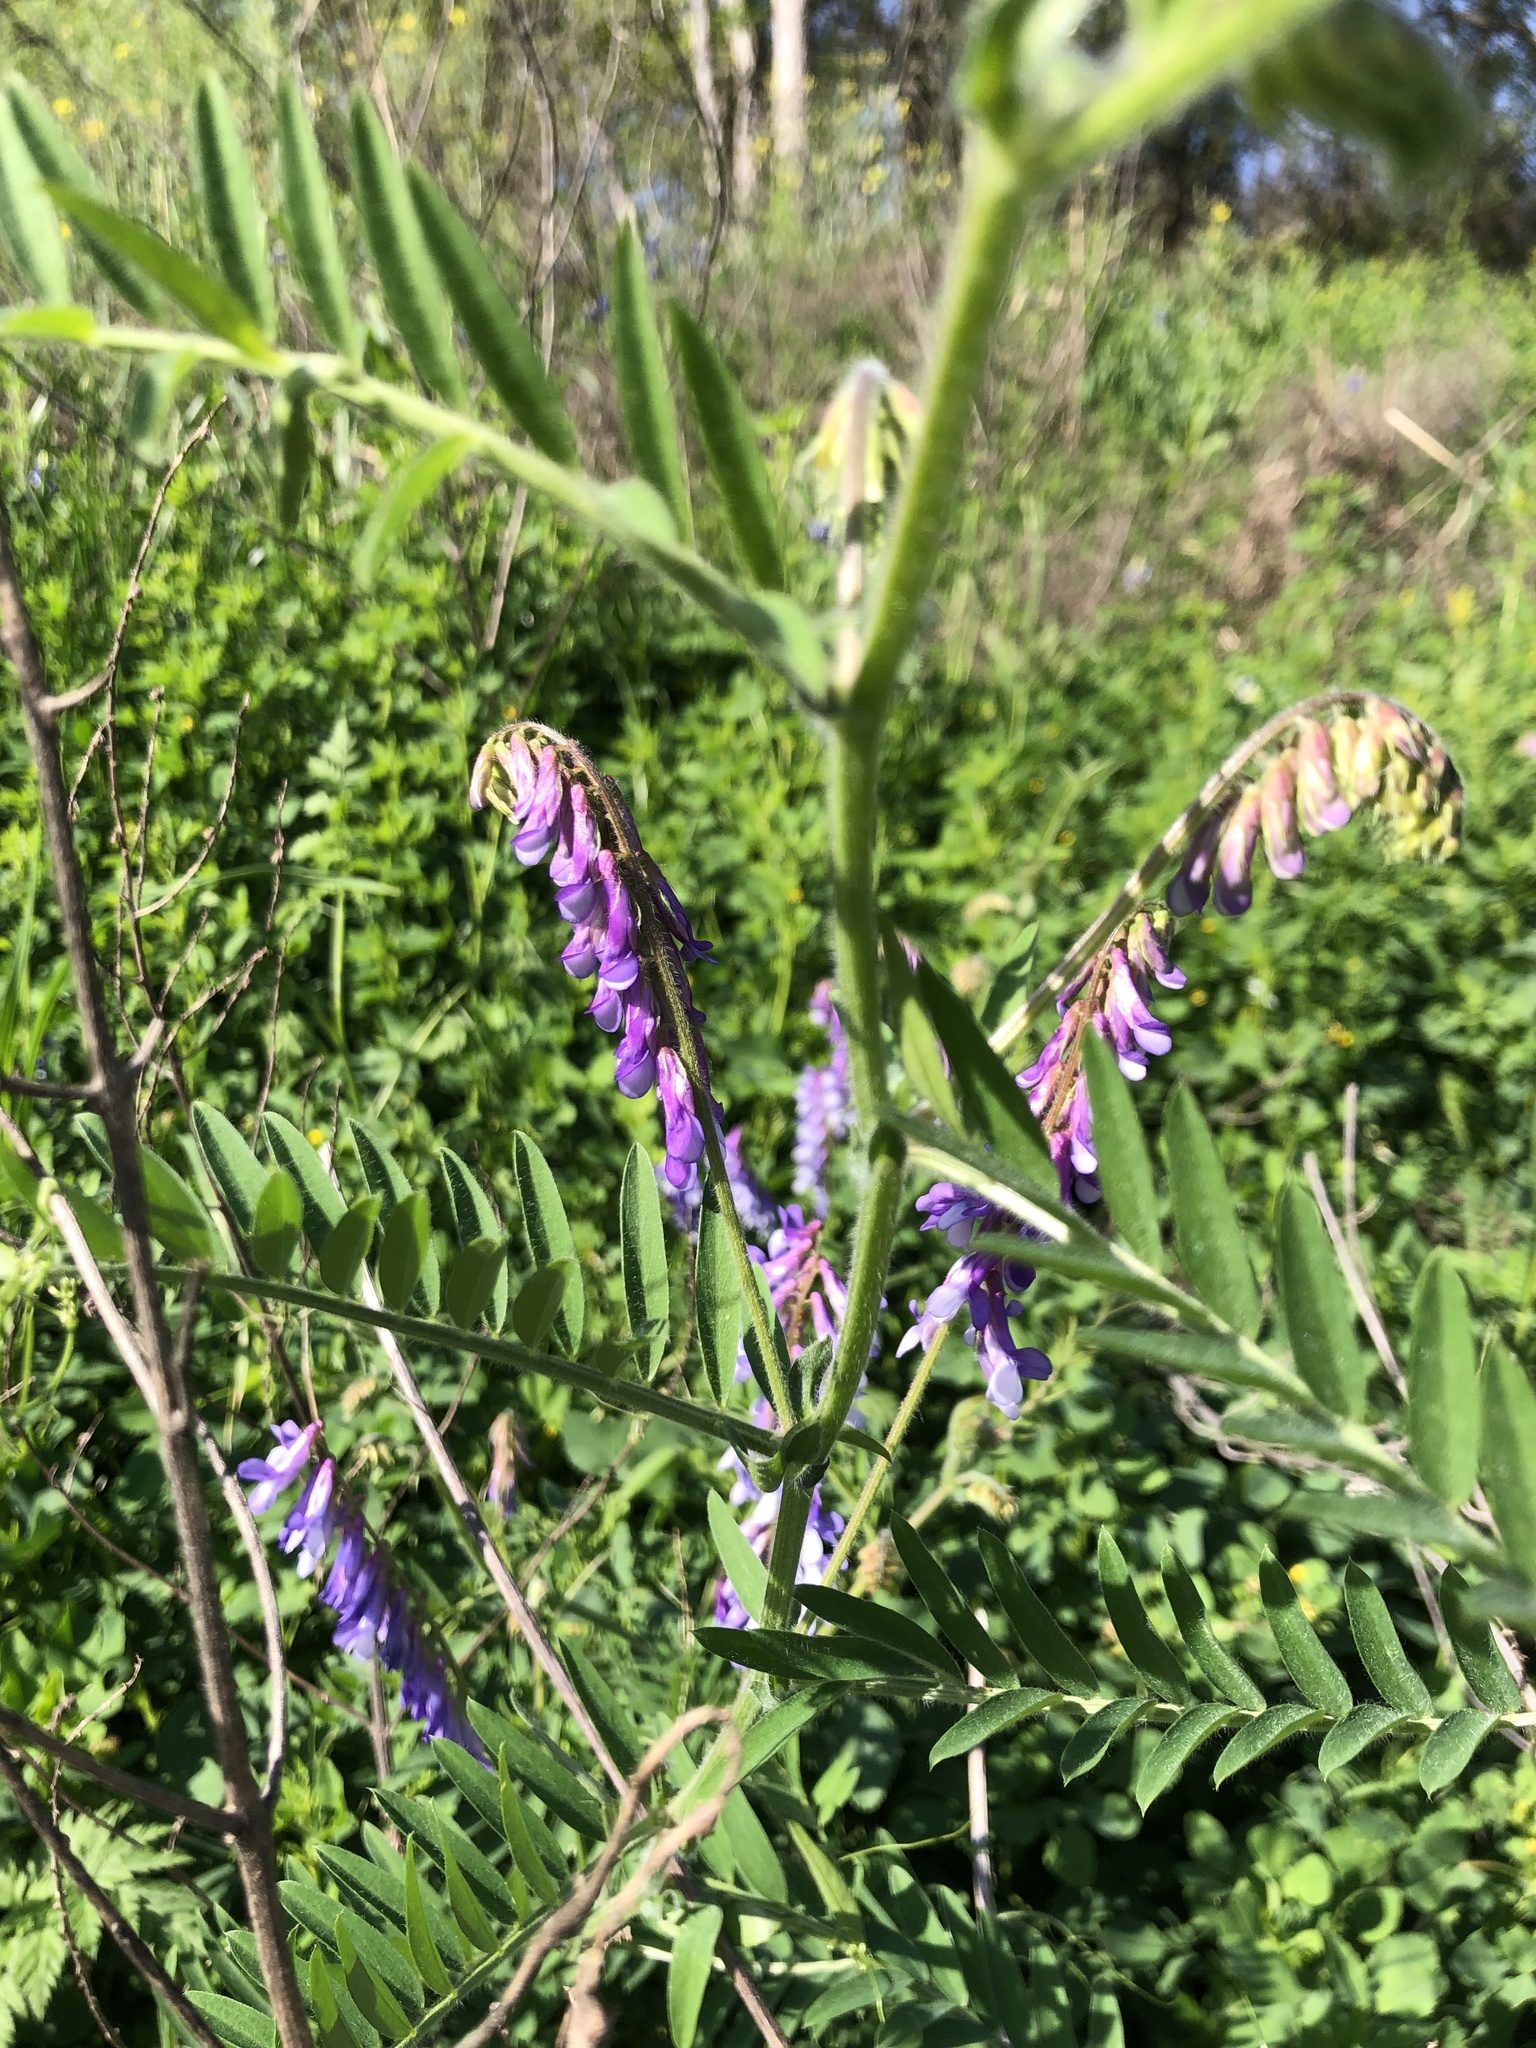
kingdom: Plantae
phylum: Tracheophyta
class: Magnoliopsida
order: Fabales
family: Fabaceae
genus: Vicia
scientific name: Vicia villosa
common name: Fodder vetch
